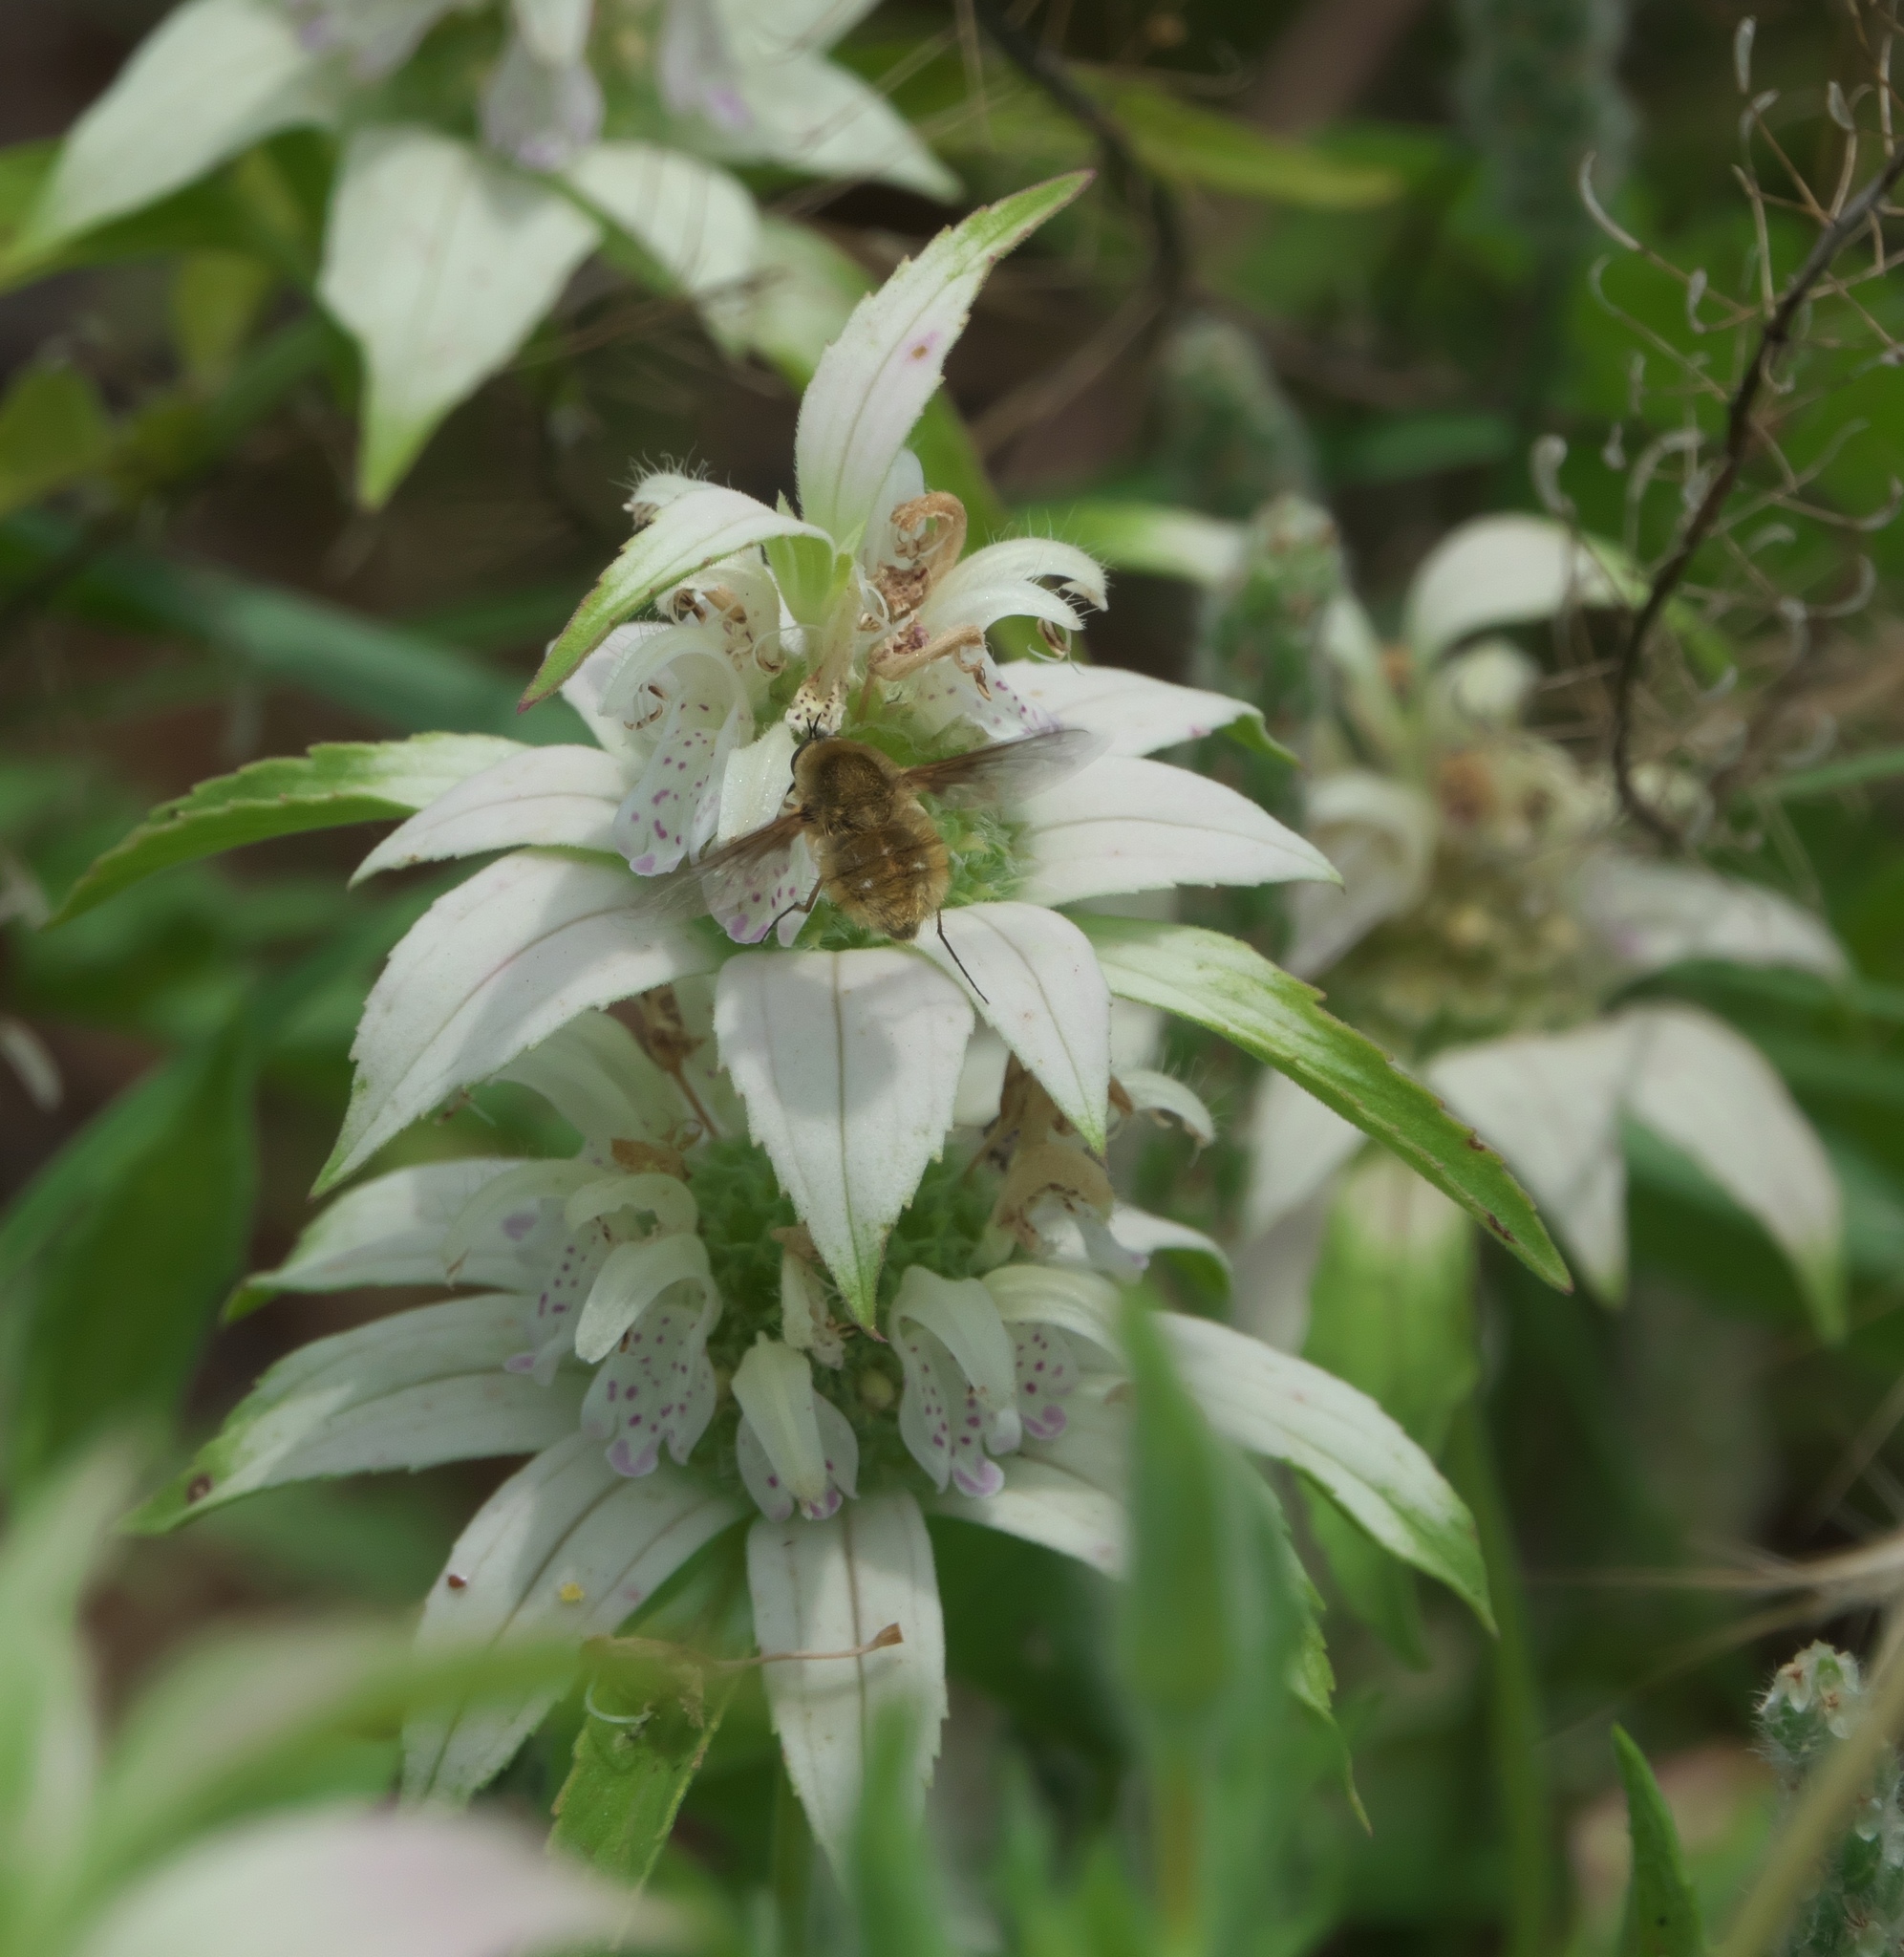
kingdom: Plantae
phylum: Tracheophyta
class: Magnoliopsida
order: Lamiales
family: Lamiaceae
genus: Monarda
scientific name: Monarda punctata
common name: Dotted monarda
